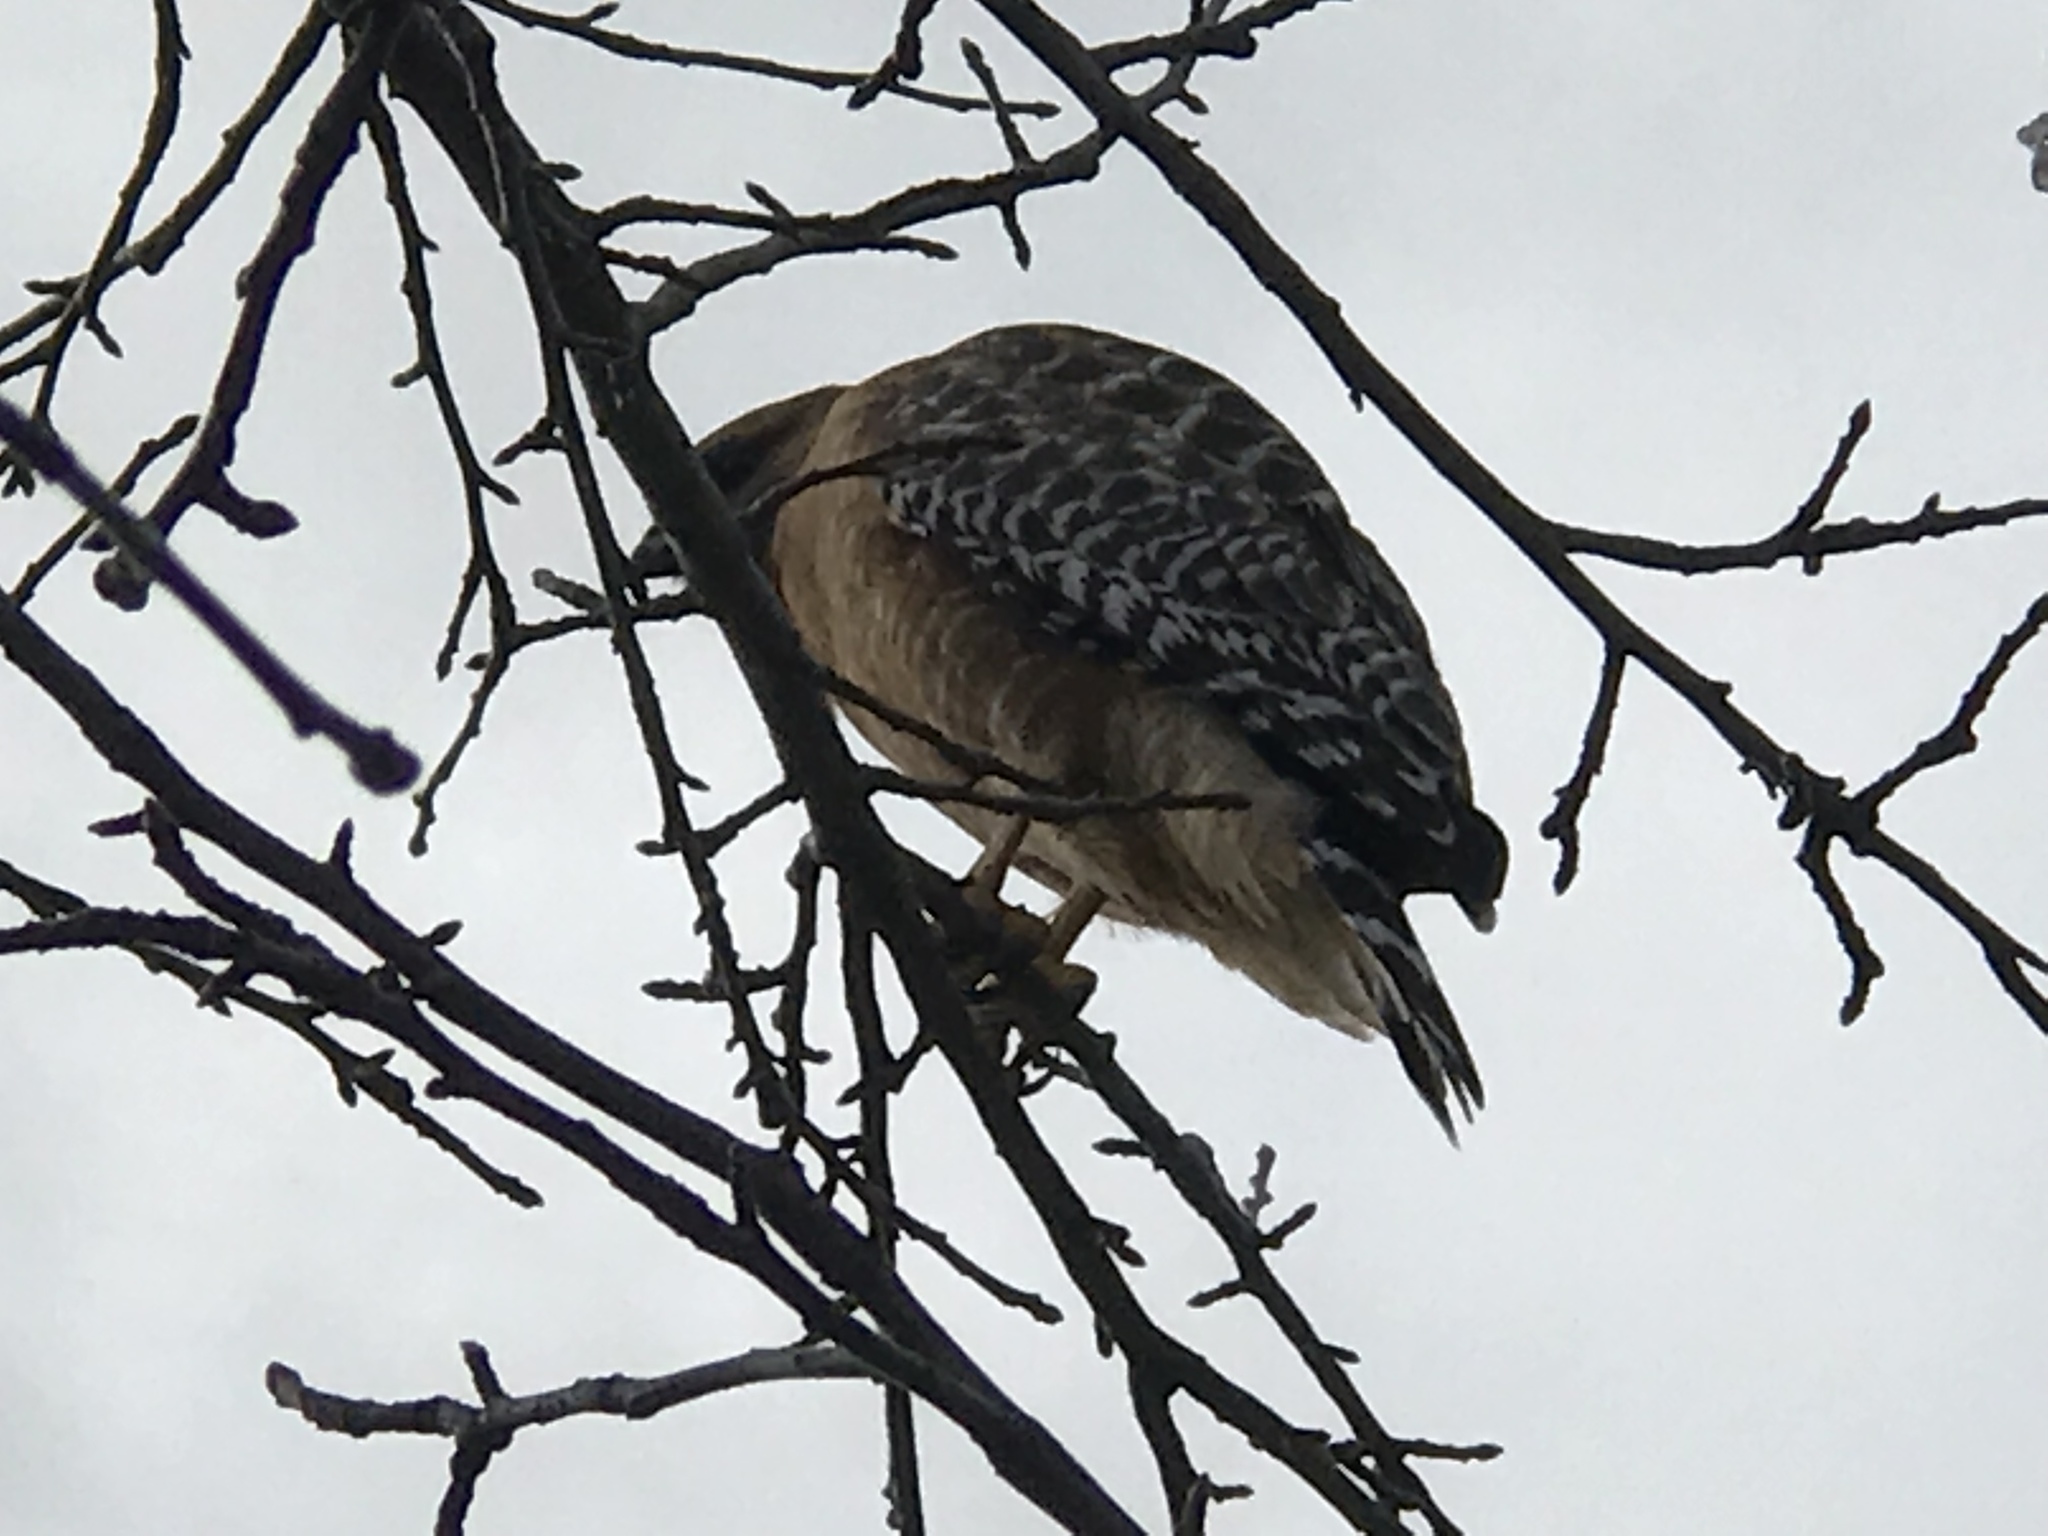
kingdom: Animalia
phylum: Chordata
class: Aves
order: Accipitriformes
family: Accipitridae
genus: Buteo
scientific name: Buteo lineatus
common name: Red-shouldered hawk
